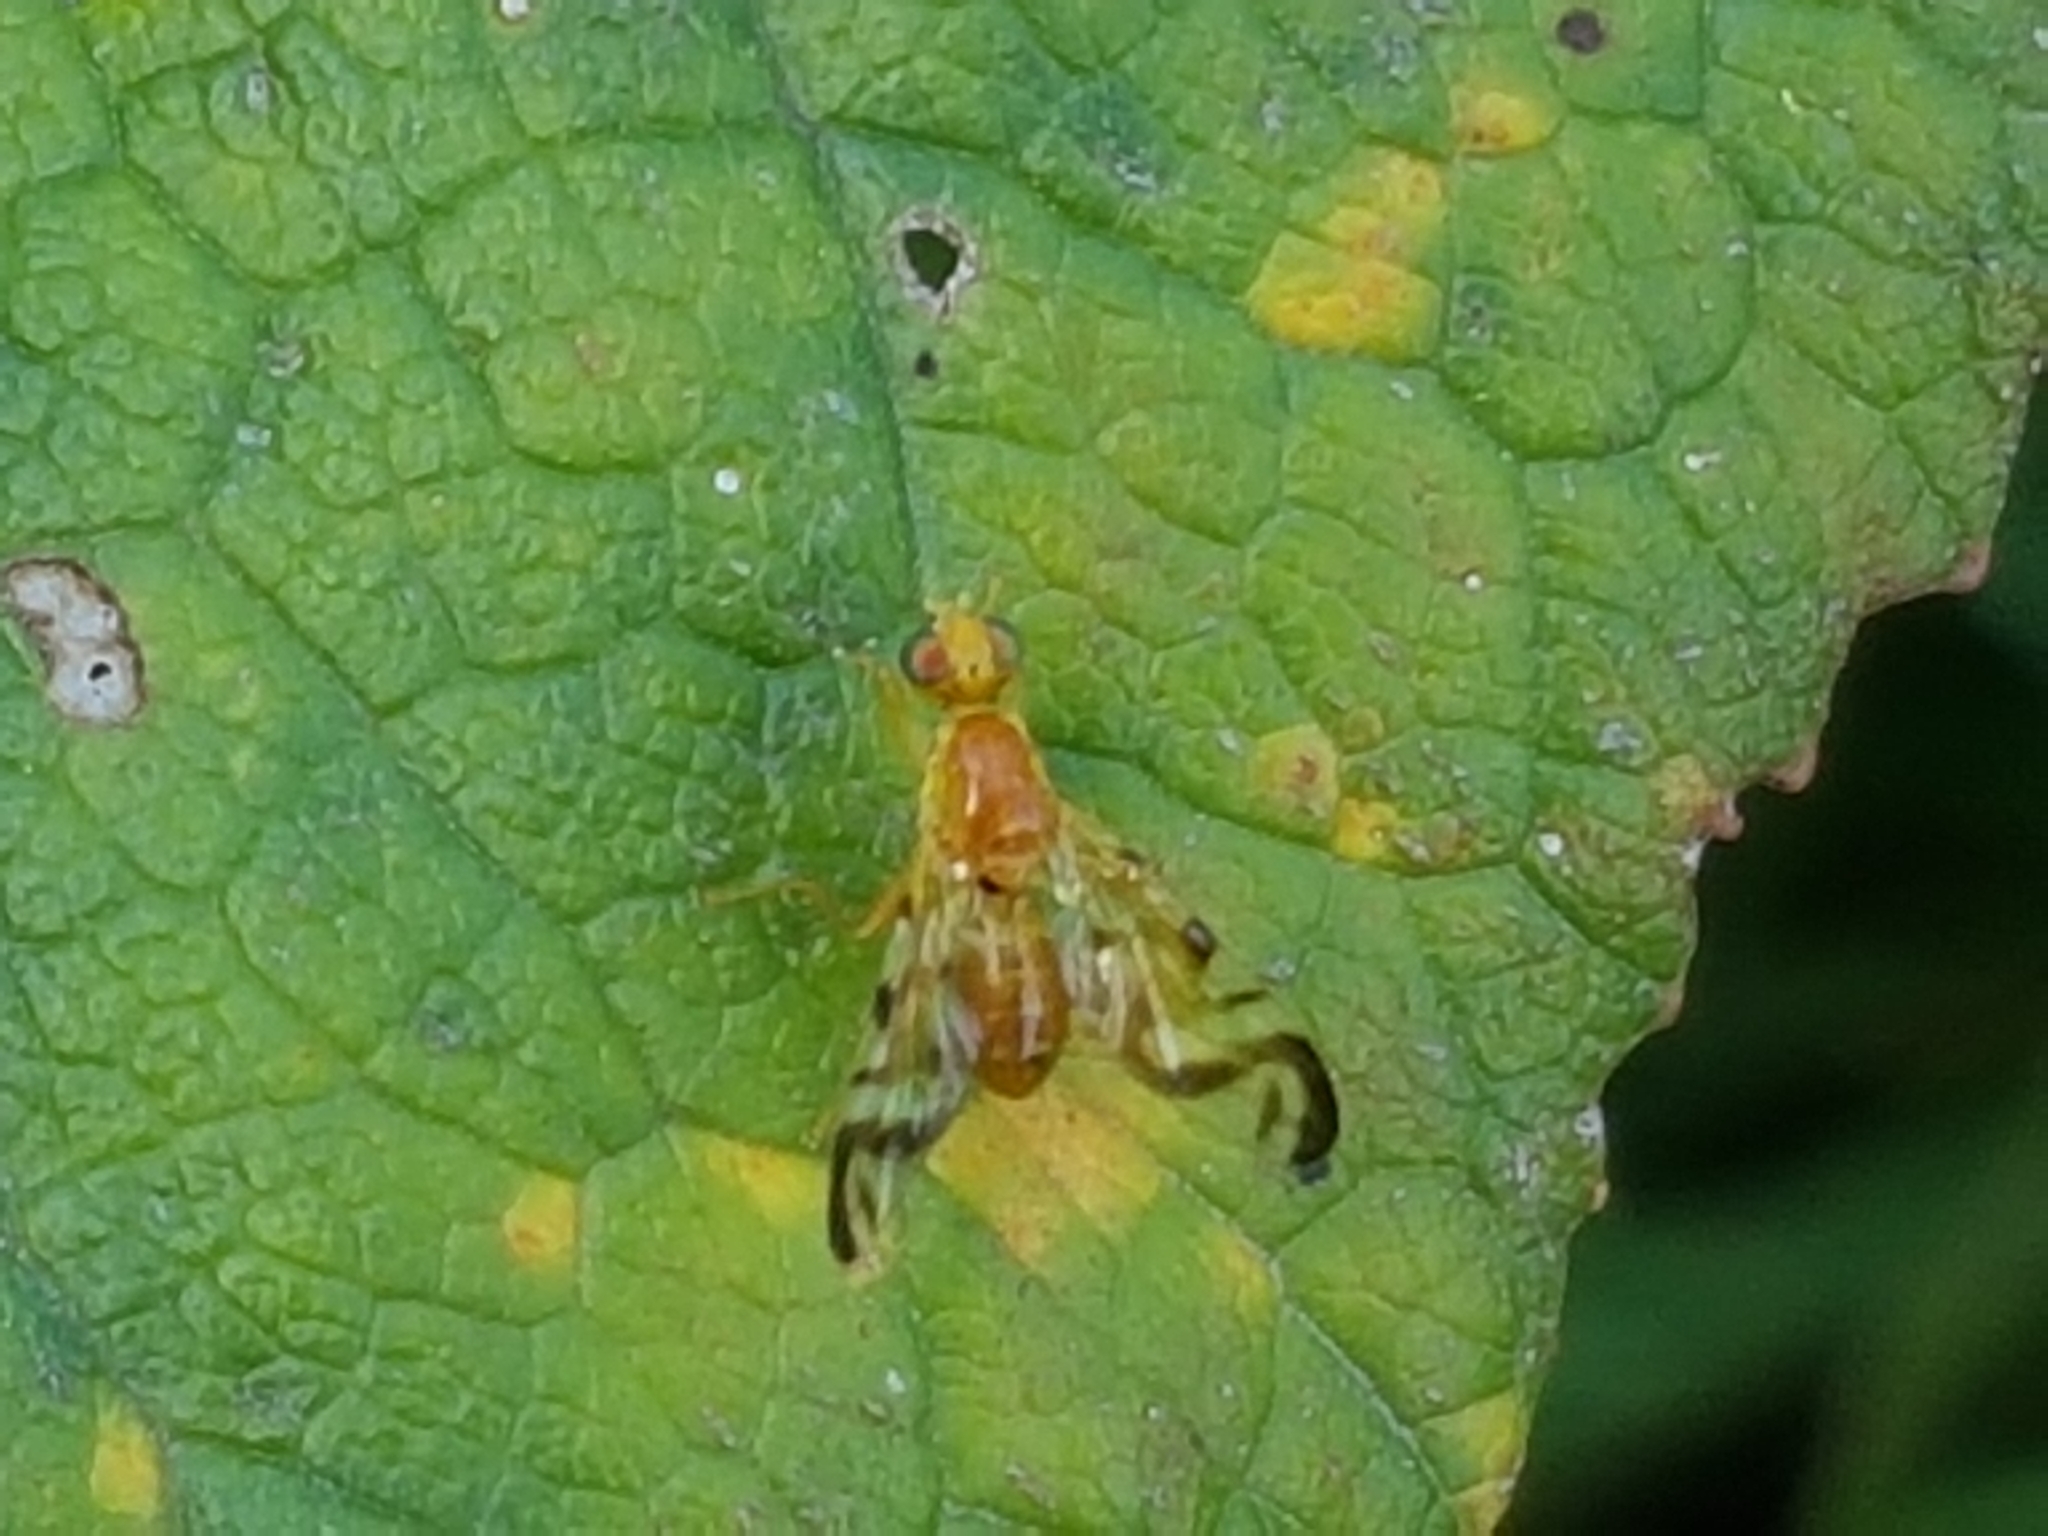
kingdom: Animalia
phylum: Arthropoda
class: Insecta
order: Diptera
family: Tephritidae
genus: Acidia
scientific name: Acidia cognata
